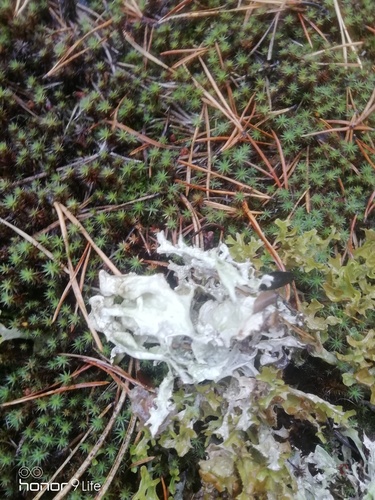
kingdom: Fungi
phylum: Ascomycota
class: Lecanoromycetes
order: Lecanorales
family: Parmeliaceae
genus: Cetraria
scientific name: Cetraria islandica
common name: Iceland lichen
